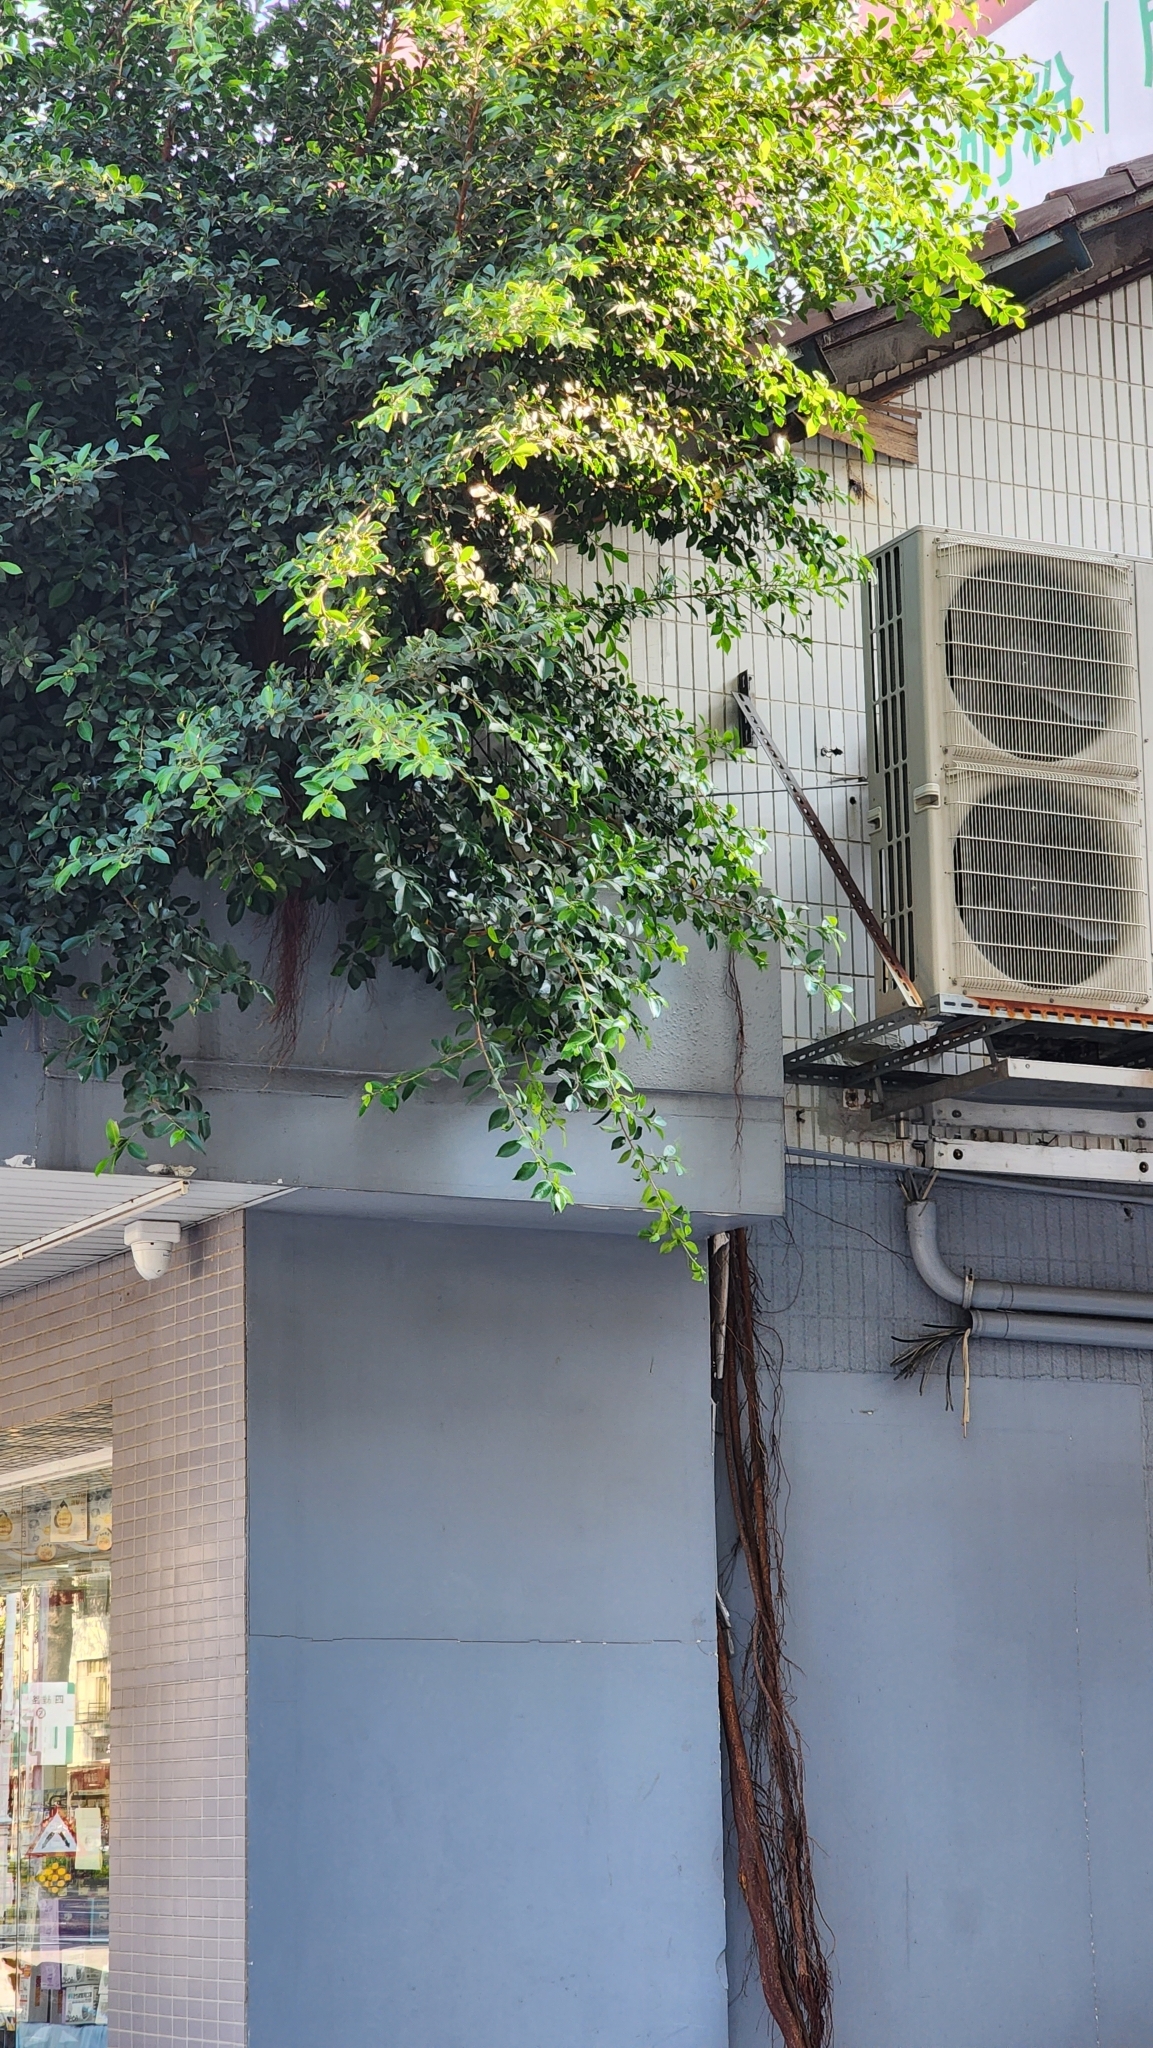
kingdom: Plantae
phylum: Tracheophyta
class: Magnoliopsida
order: Rosales
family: Moraceae
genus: Ficus
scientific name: Ficus microcarpa
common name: Chinese banyan
